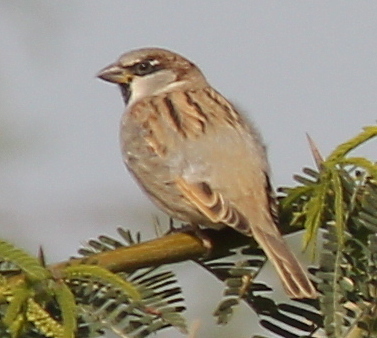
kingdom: Animalia
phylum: Chordata
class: Aves
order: Passeriformes
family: Passeridae
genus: Passer
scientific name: Passer domesticus
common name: House sparrow
